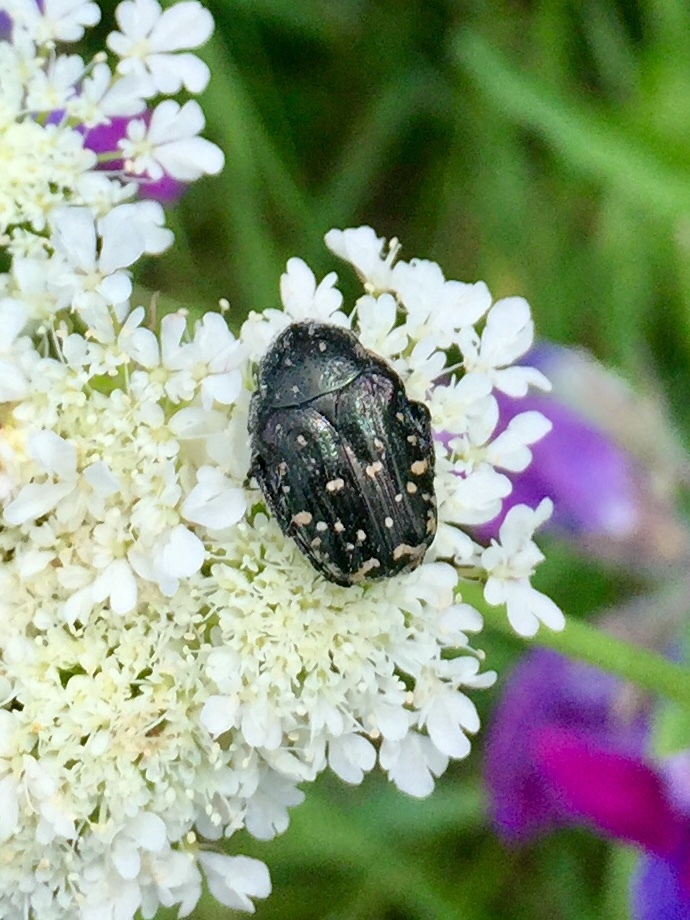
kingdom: Animalia
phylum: Arthropoda
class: Insecta
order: Coleoptera
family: Scarabaeidae
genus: Oxythyrea
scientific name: Oxythyrea funesta
